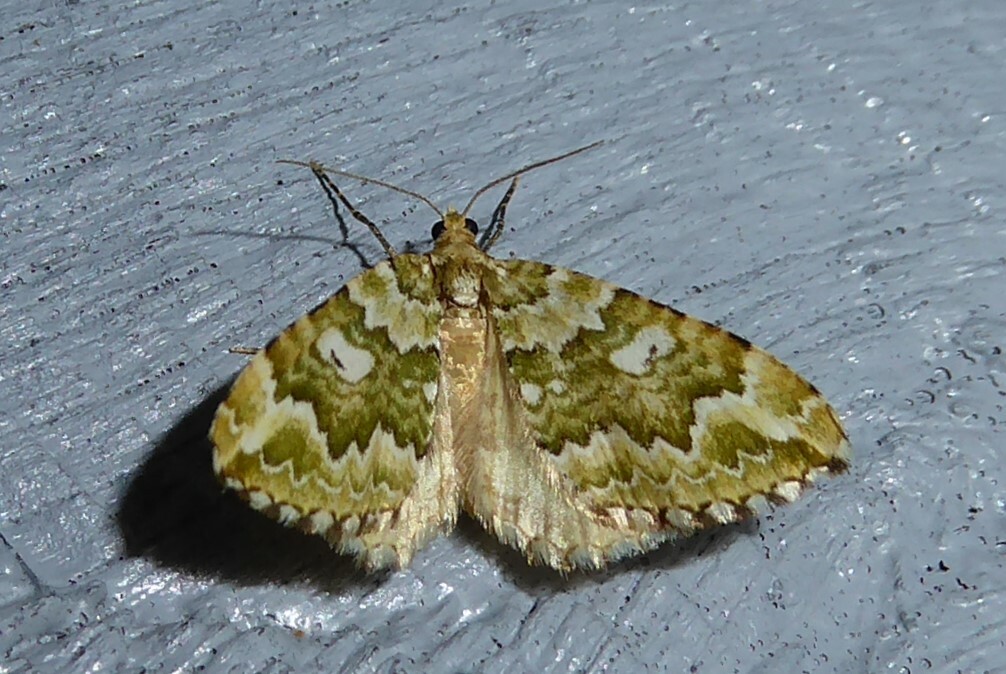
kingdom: Animalia
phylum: Arthropoda
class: Insecta
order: Lepidoptera
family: Geometridae
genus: Asaphodes
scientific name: Asaphodes beata
